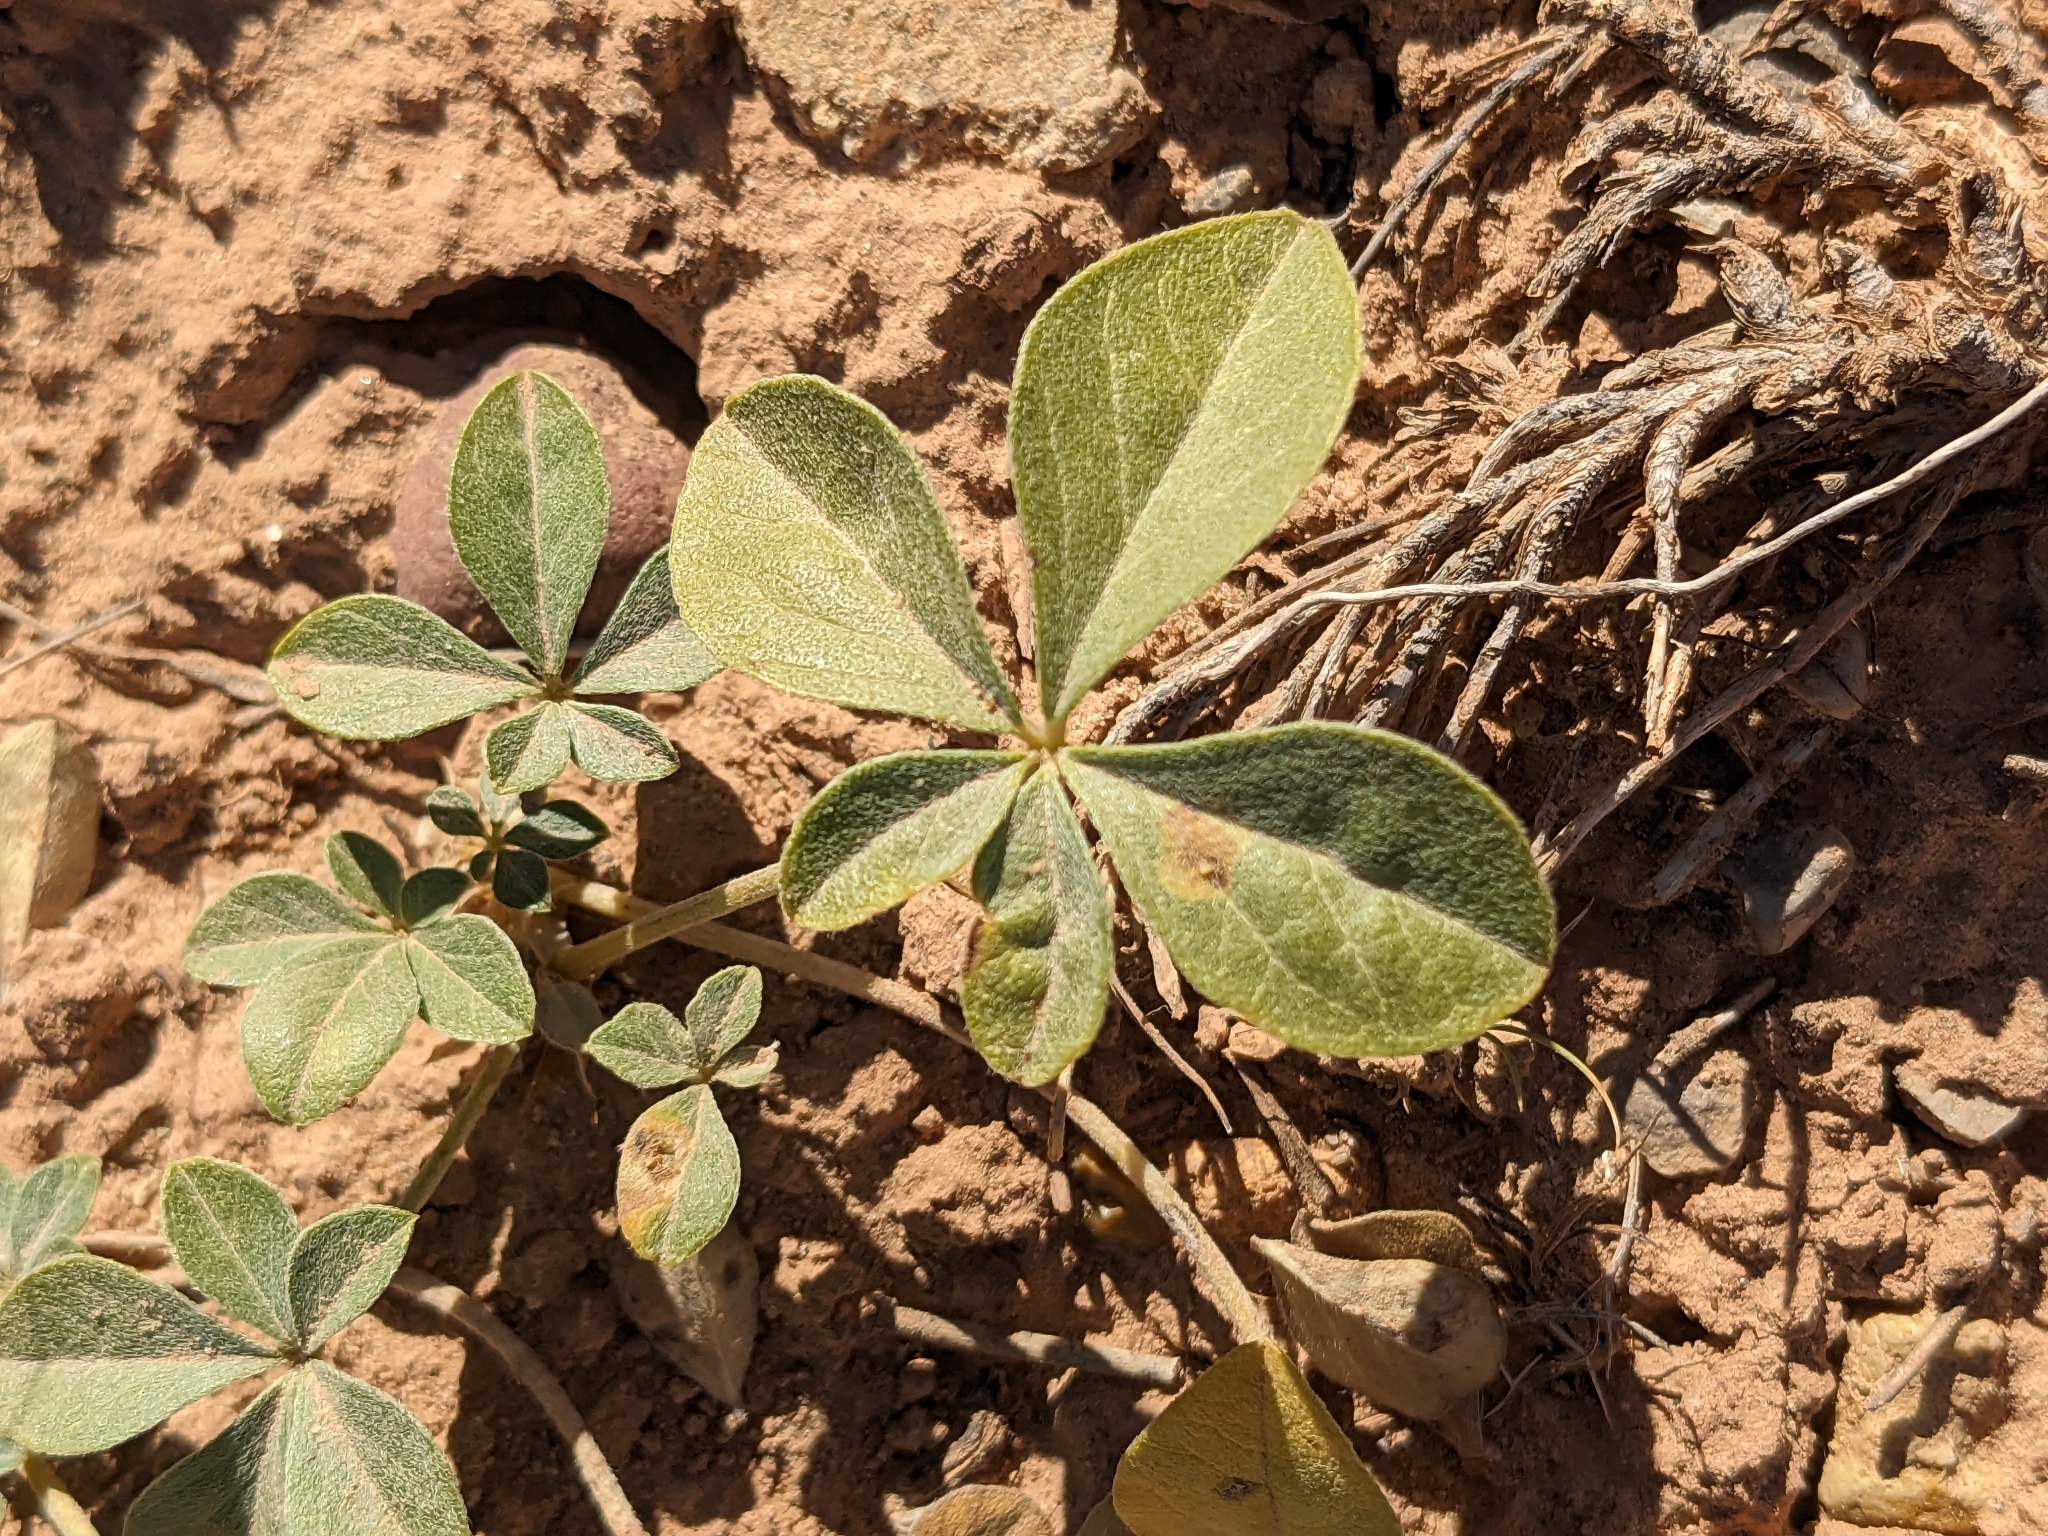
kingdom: Plantae
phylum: Tracheophyta
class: Magnoliopsida
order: Fabales
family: Fabaceae
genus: Pediomelum
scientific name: Pediomelum megalanthum
